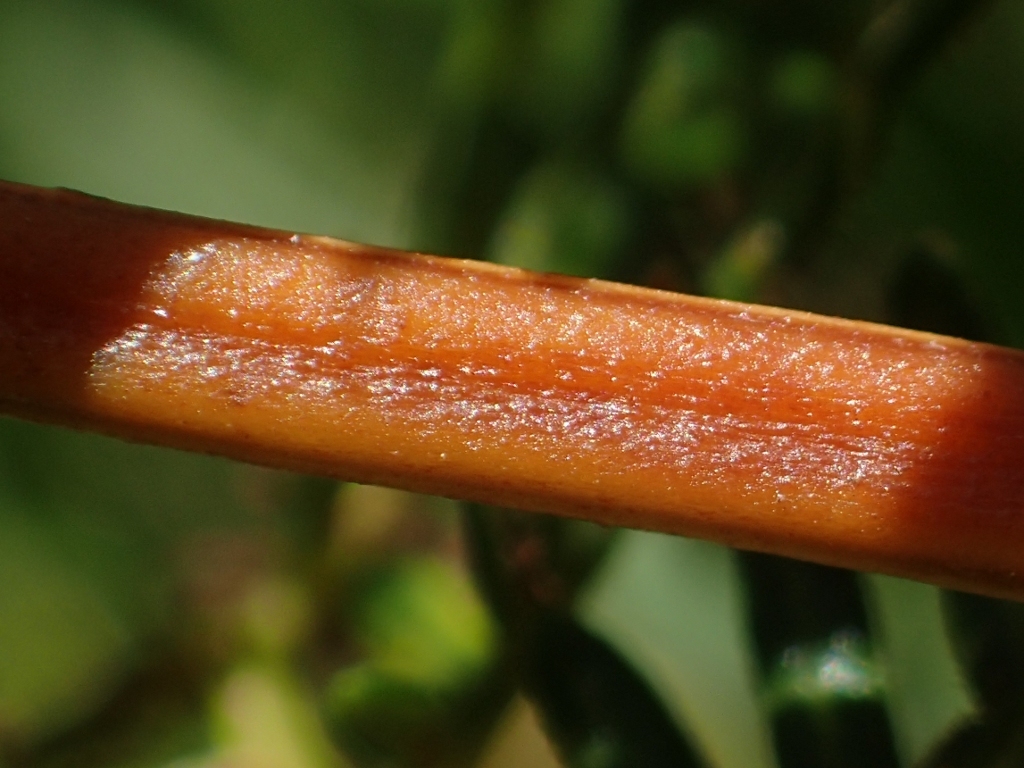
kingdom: Plantae
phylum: Tracheophyta
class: Polypodiopsida
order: Polypodiales
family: Dennstaedtiaceae
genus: Pteridium
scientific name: Pteridium esculentum
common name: Bracken fern
